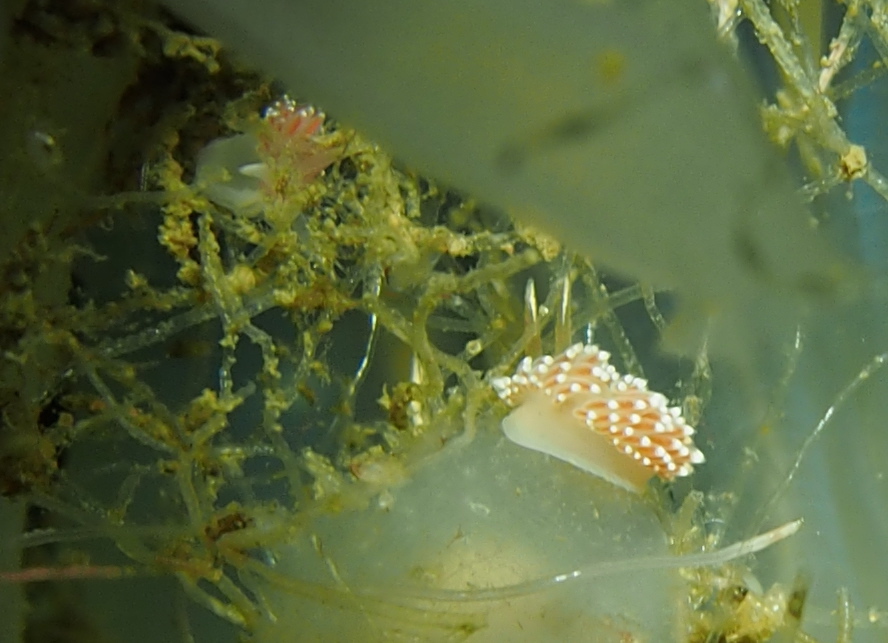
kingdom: Animalia
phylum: Mollusca
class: Gastropoda
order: Nudibranchia
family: Coryphellidae
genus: Coryphella
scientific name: Coryphella verrucosa
